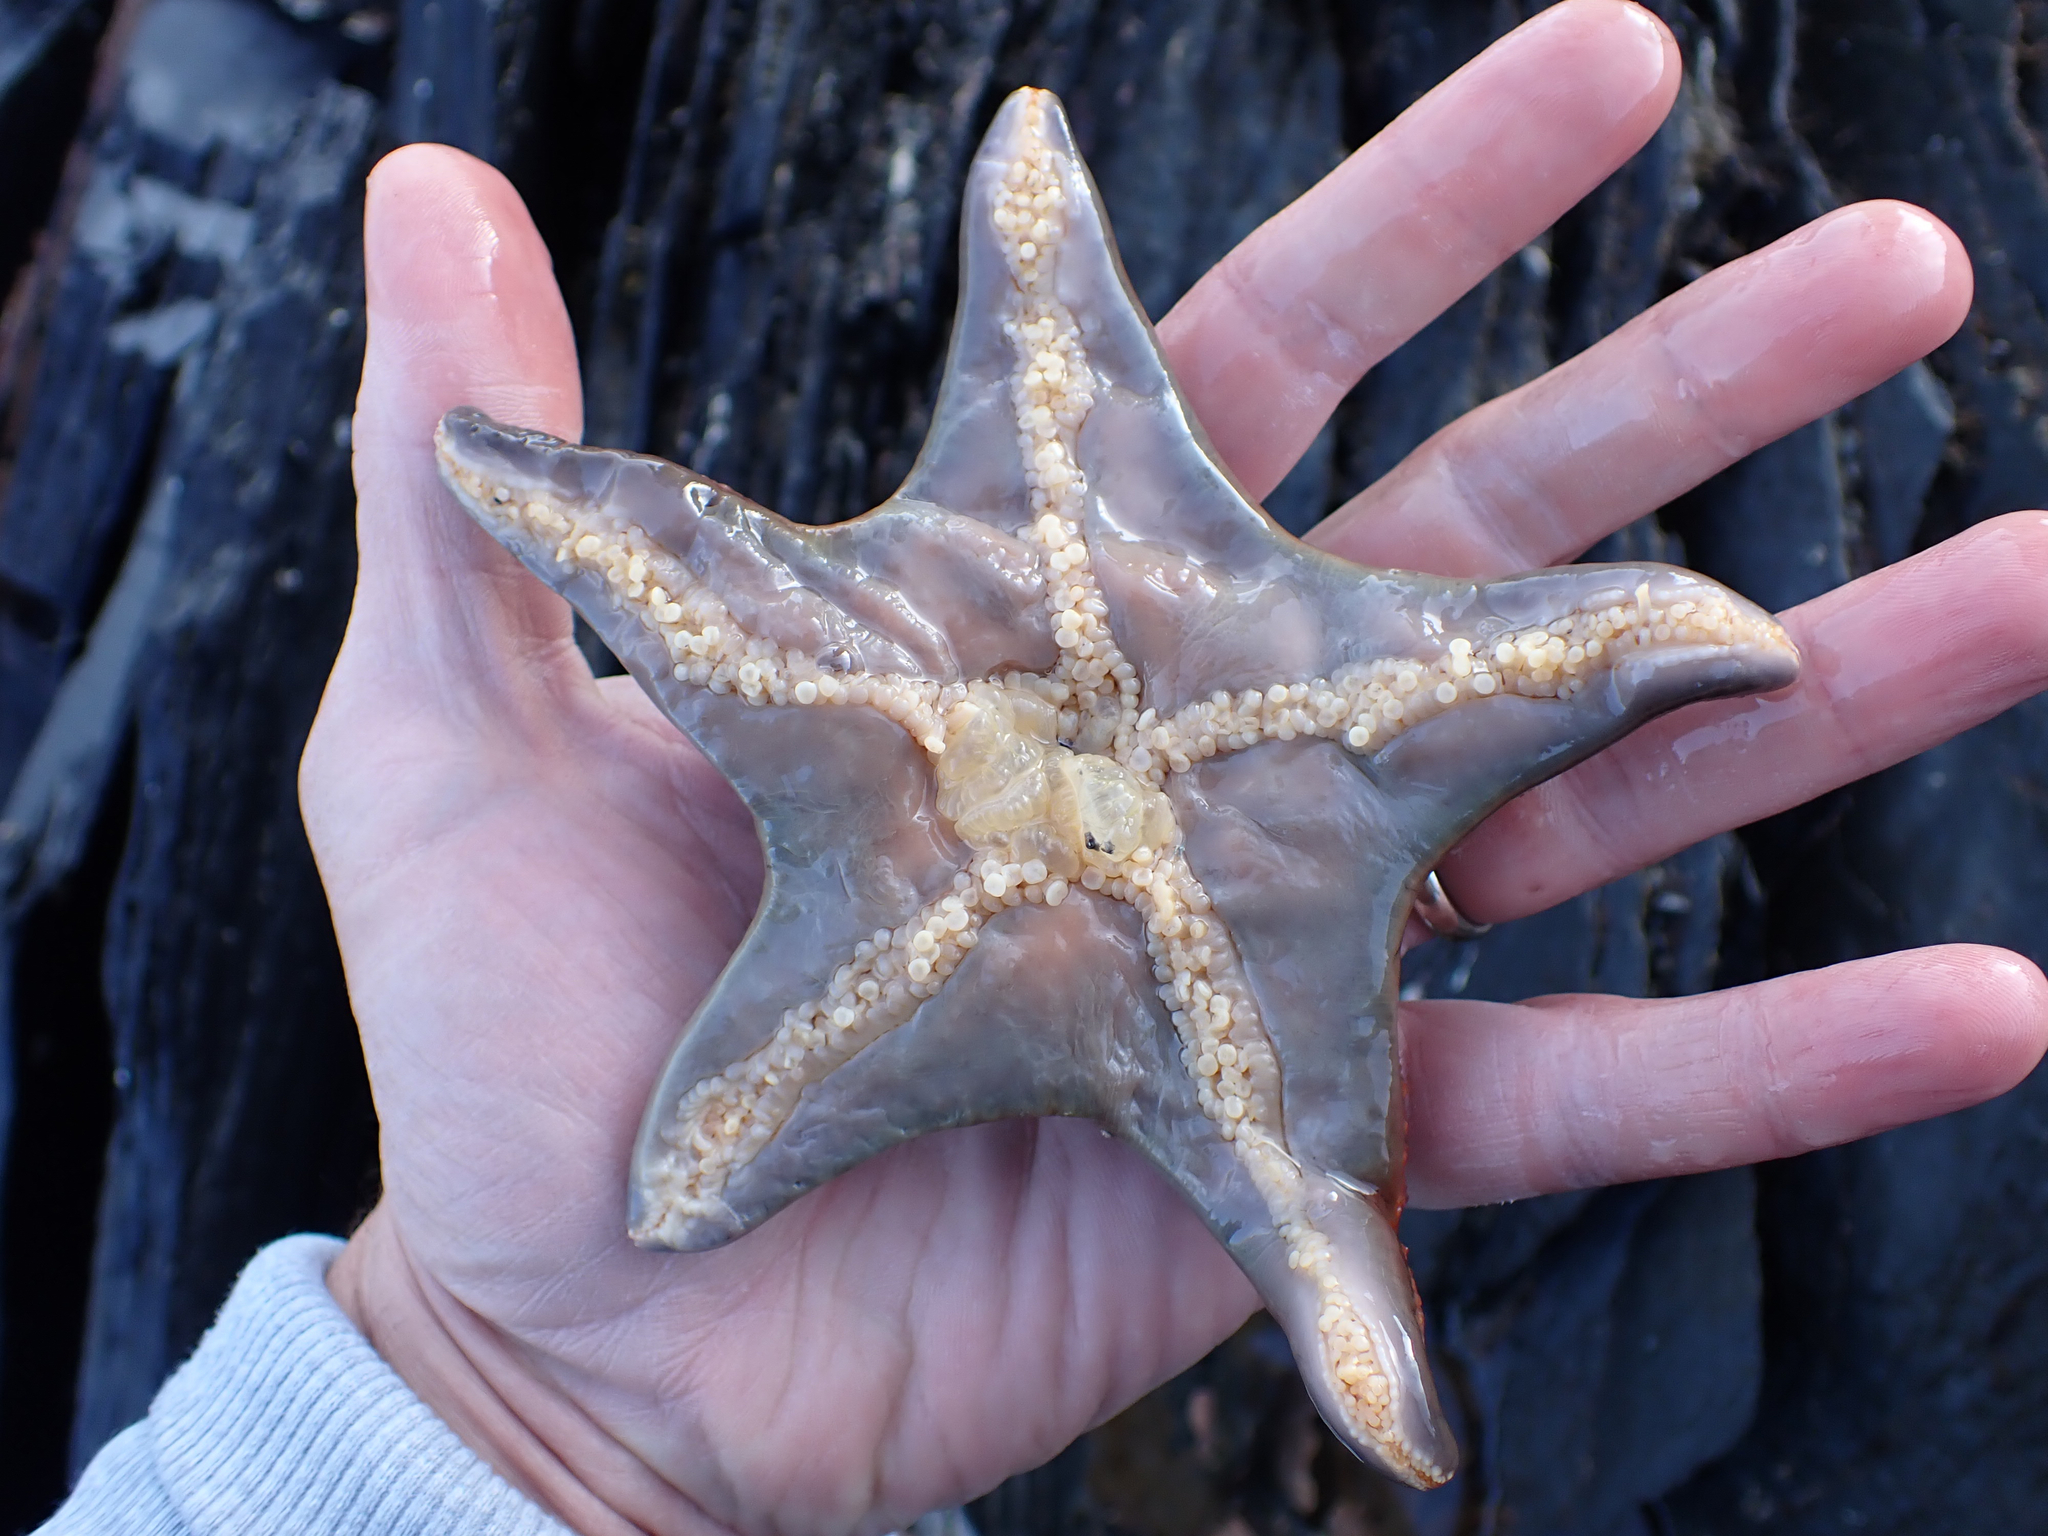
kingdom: Animalia
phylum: Echinodermata
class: Asteroidea
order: Valvatida
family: Asteropseidae
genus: Dermasterias
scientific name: Dermasterias imbricata
